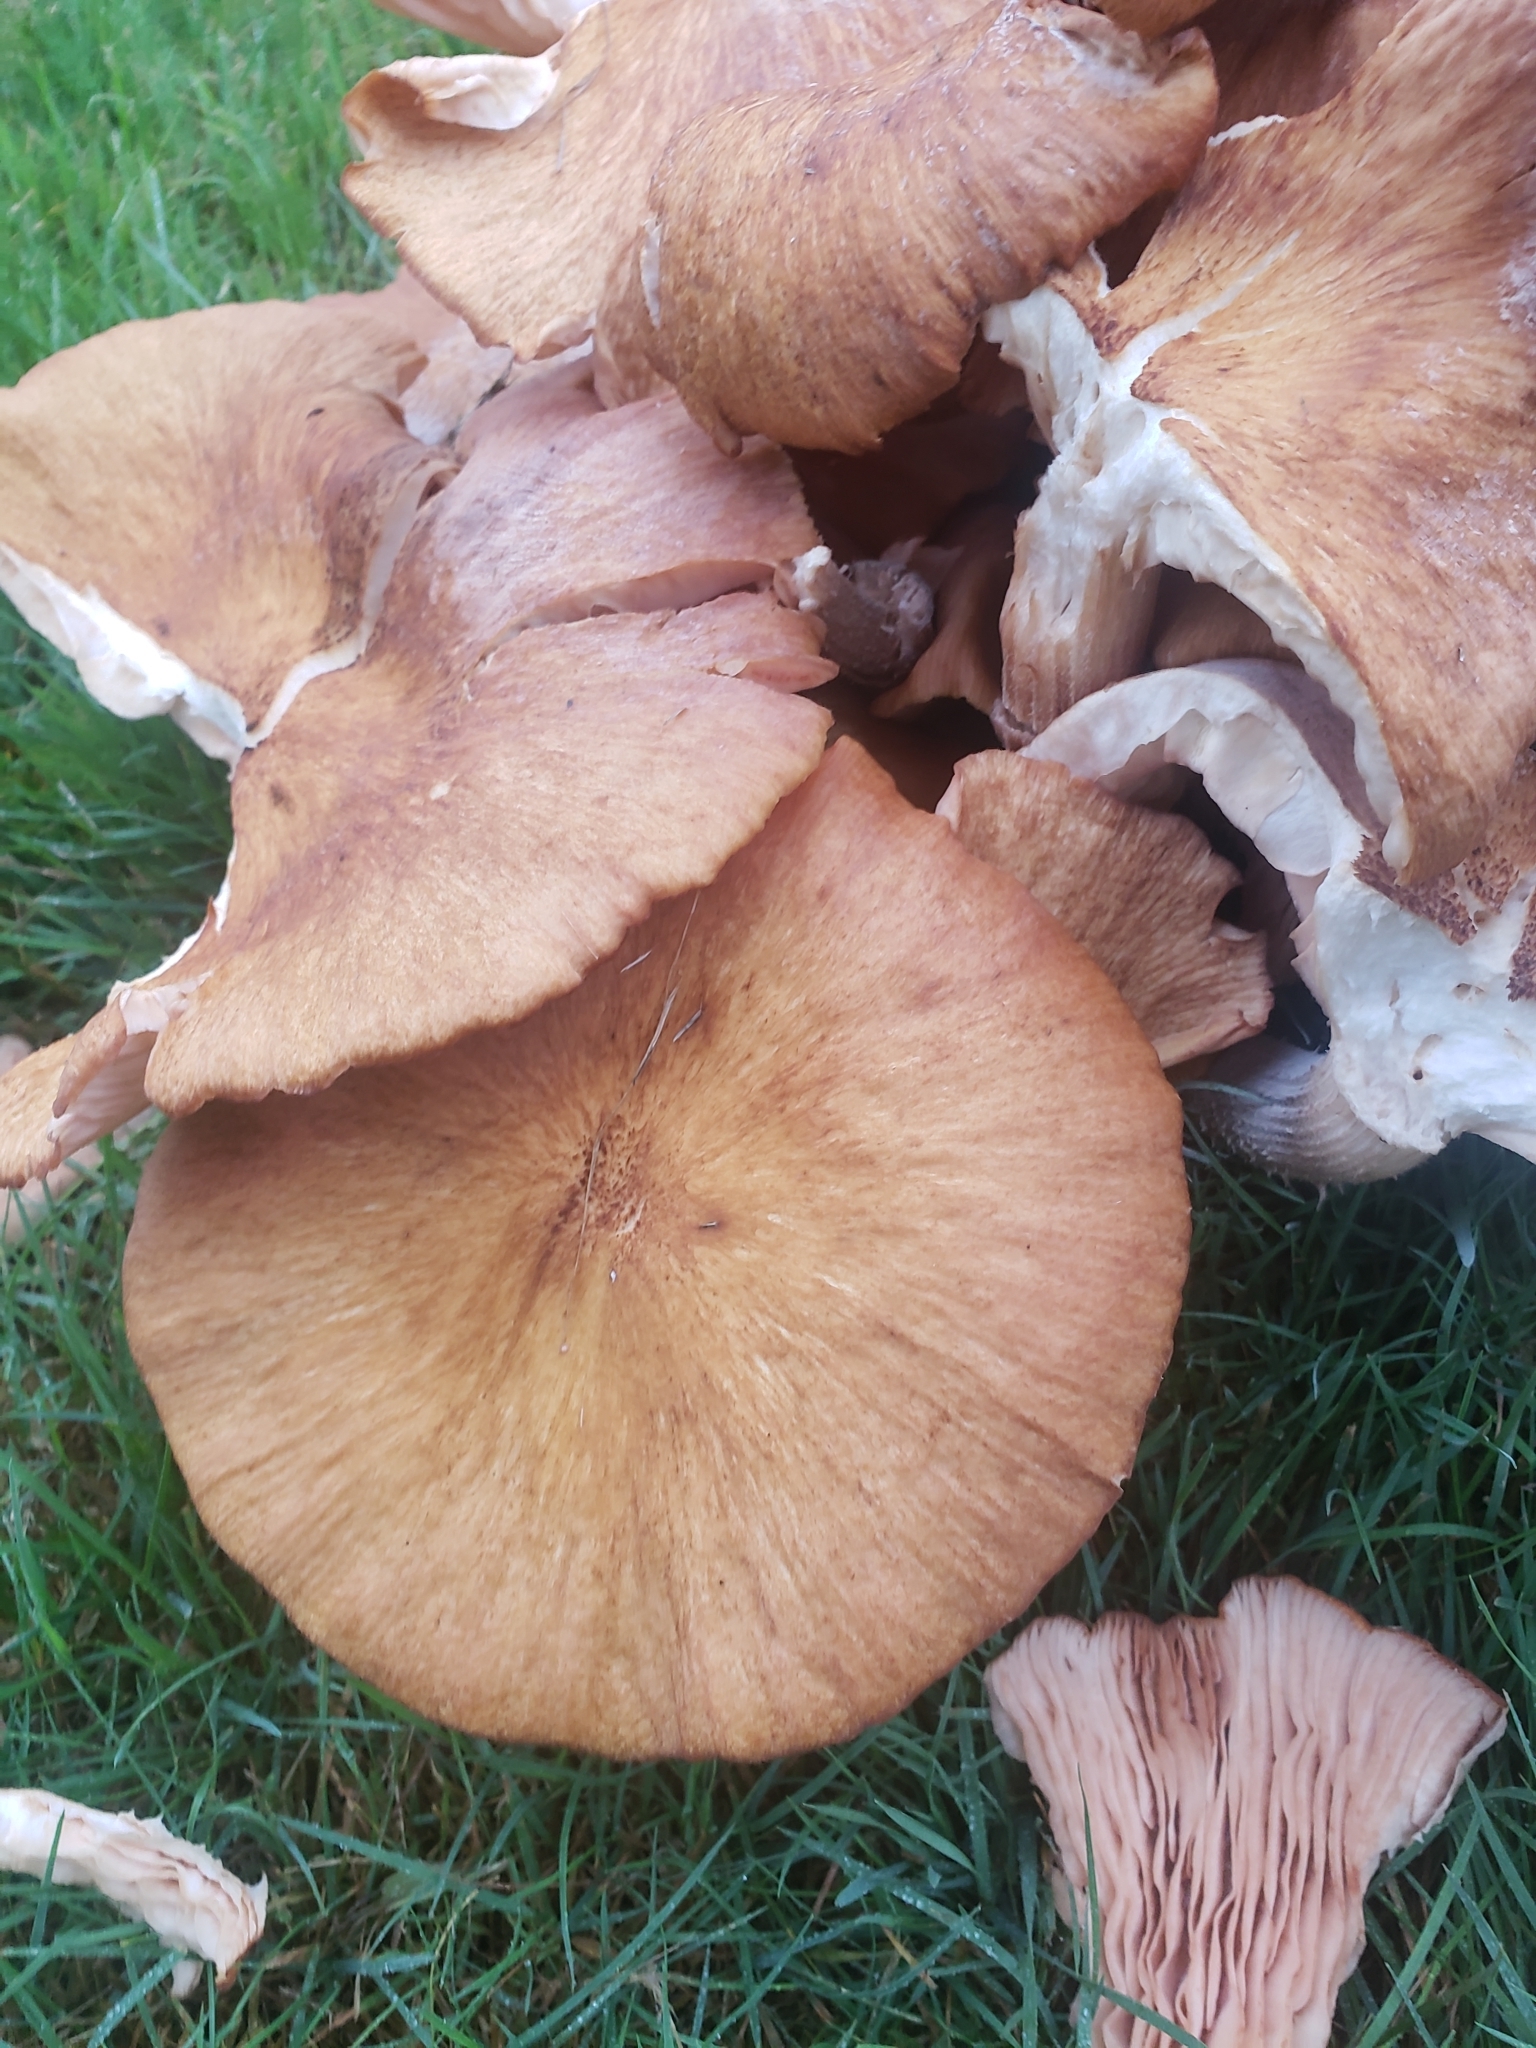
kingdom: Fungi
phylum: Basidiomycota
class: Agaricomycetes
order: Agaricales
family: Physalacriaceae
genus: Desarmillaria
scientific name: Desarmillaria caespitosa
